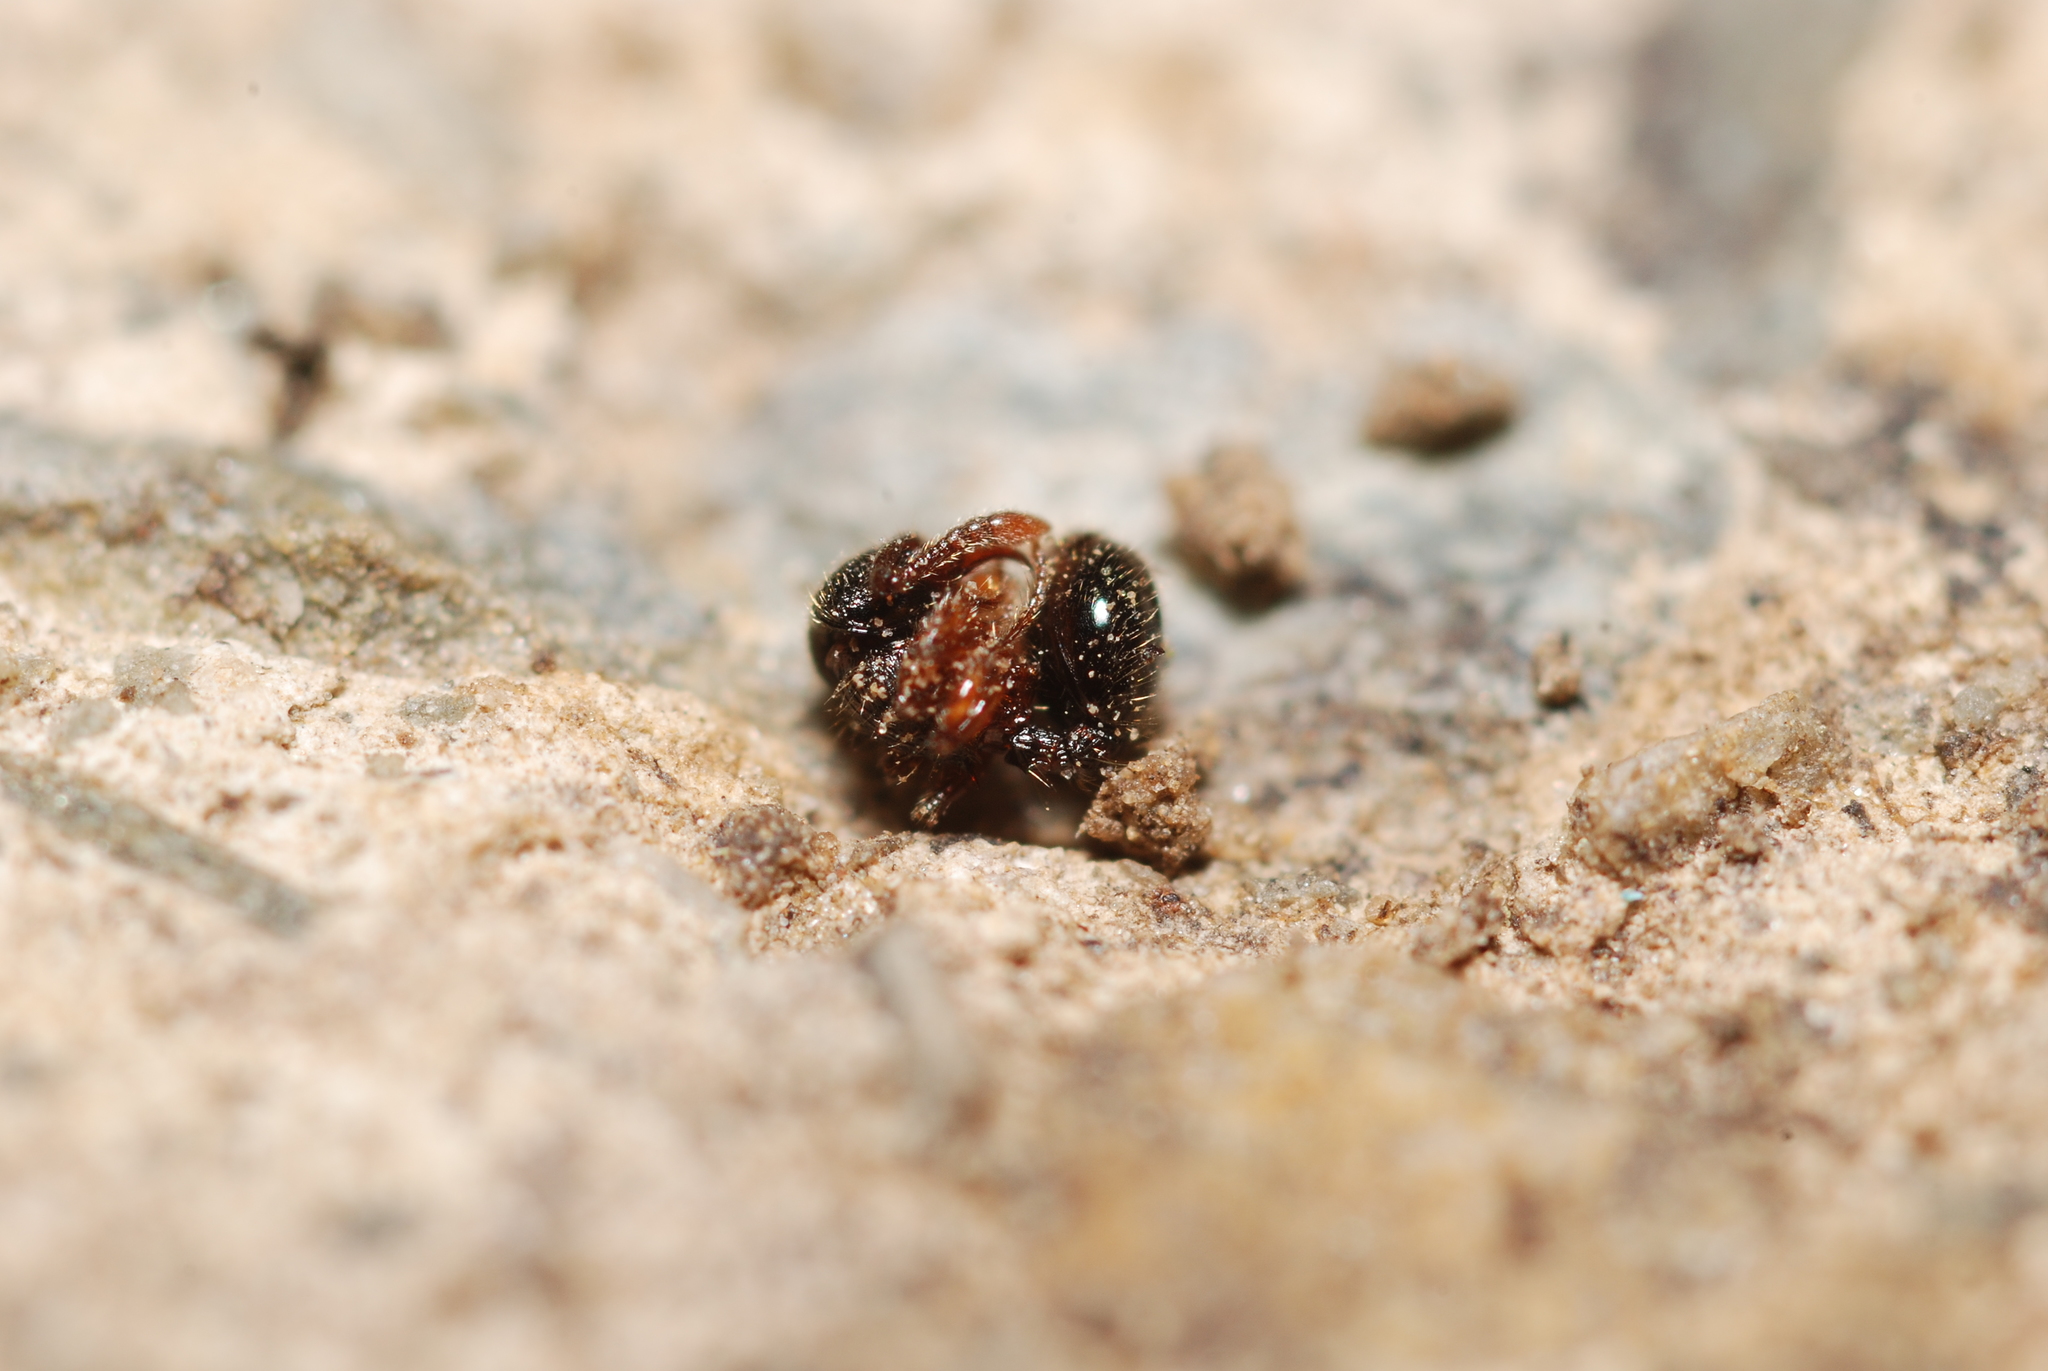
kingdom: Animalia
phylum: Arthropoda
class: Insecta
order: Hymenoptera
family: Formicidae
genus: Myrmecina
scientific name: Myrmecina graminicola
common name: Grass ant
